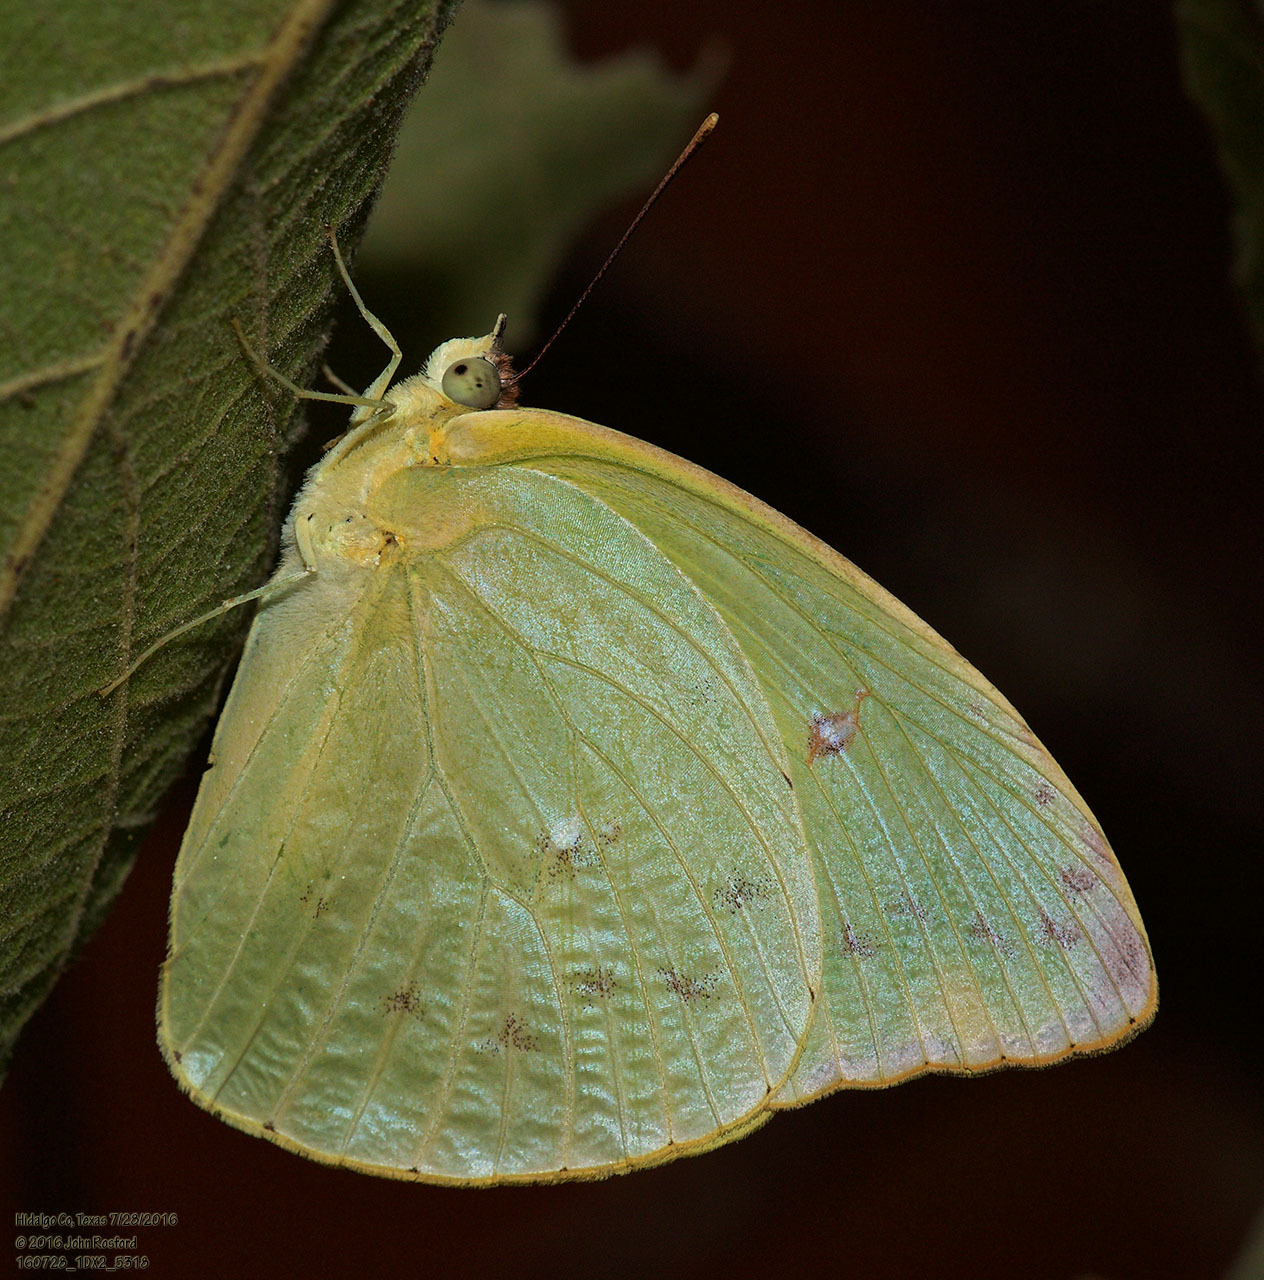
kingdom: Animalia
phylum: Arthropoda
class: Insecta
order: Lepidoptera
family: Pieridae
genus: Aphrissa
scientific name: Aphrissa statira
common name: Statira sulphur
